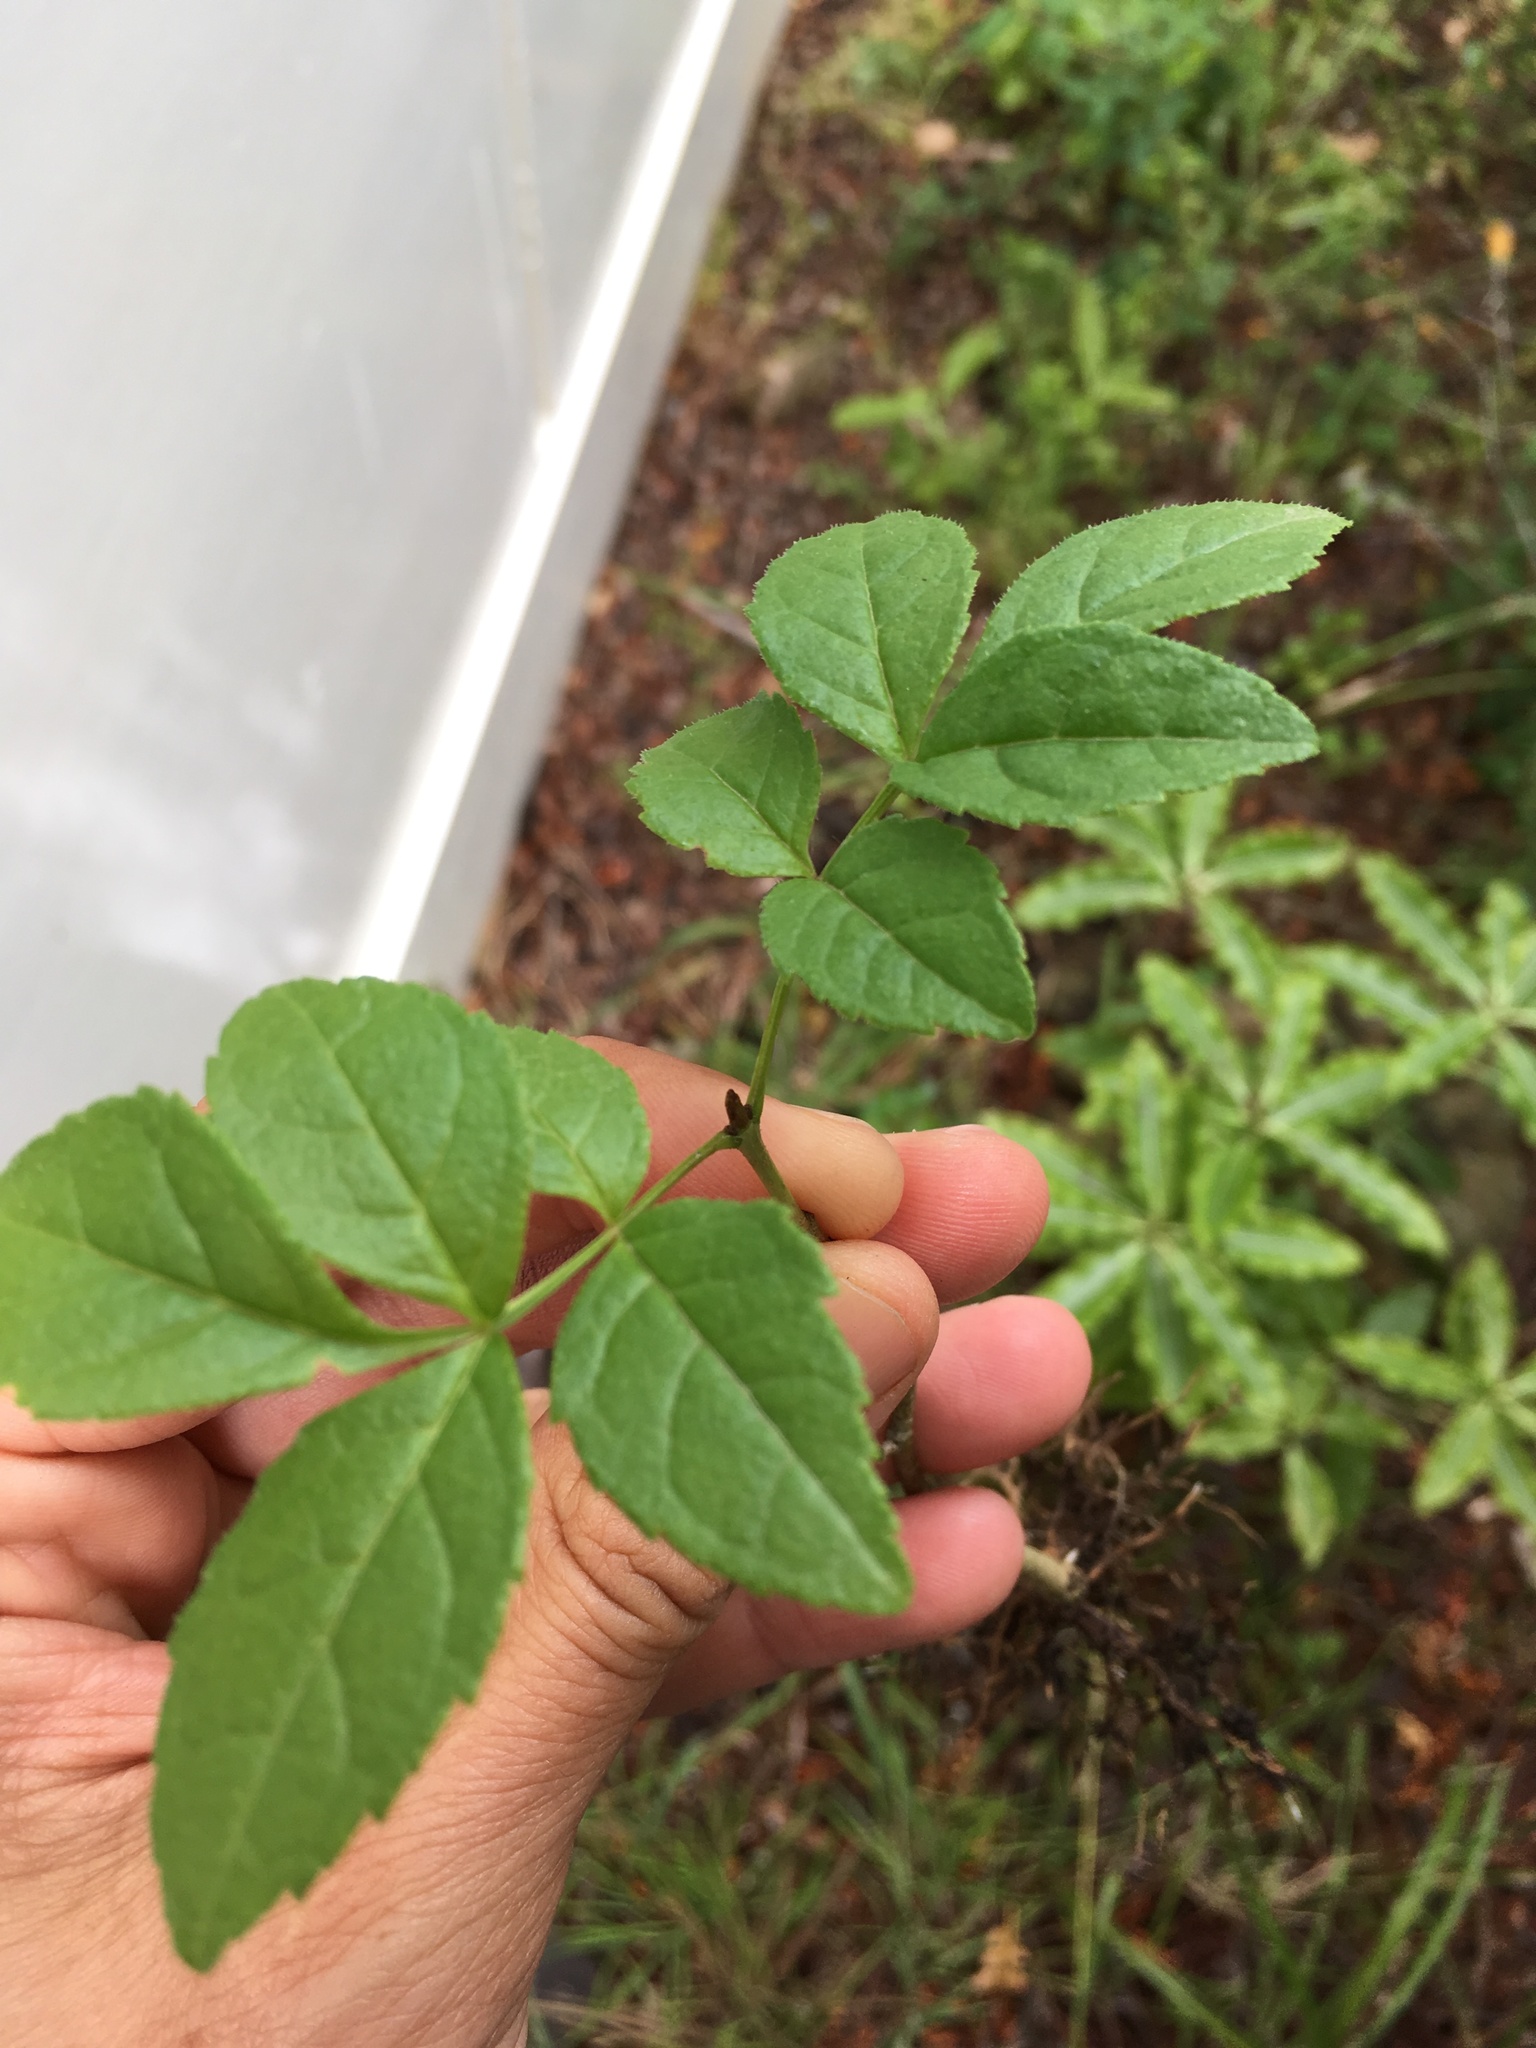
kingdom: Plantae
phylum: Tracheophyta
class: Magnoliopsida
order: Lamiales
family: Oleaceae
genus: Fraxinus
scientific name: Fraxinus excelsior
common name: European ash
